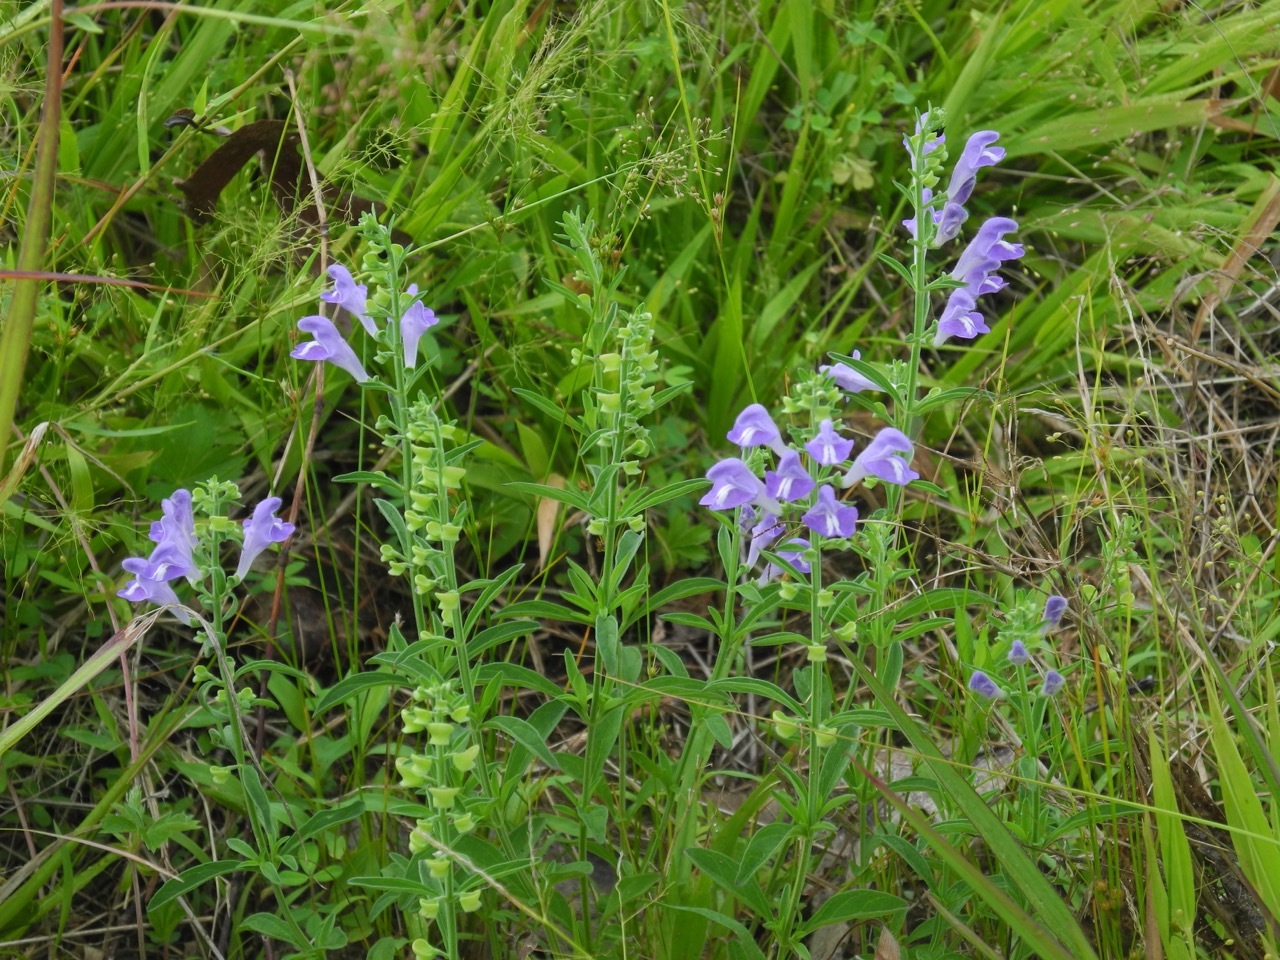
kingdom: Plantae
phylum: Tracheophyta
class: Magnoliopsida
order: Lamiales
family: Lamiaceae
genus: Scutellaria
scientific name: Scutellaria integrifolia
